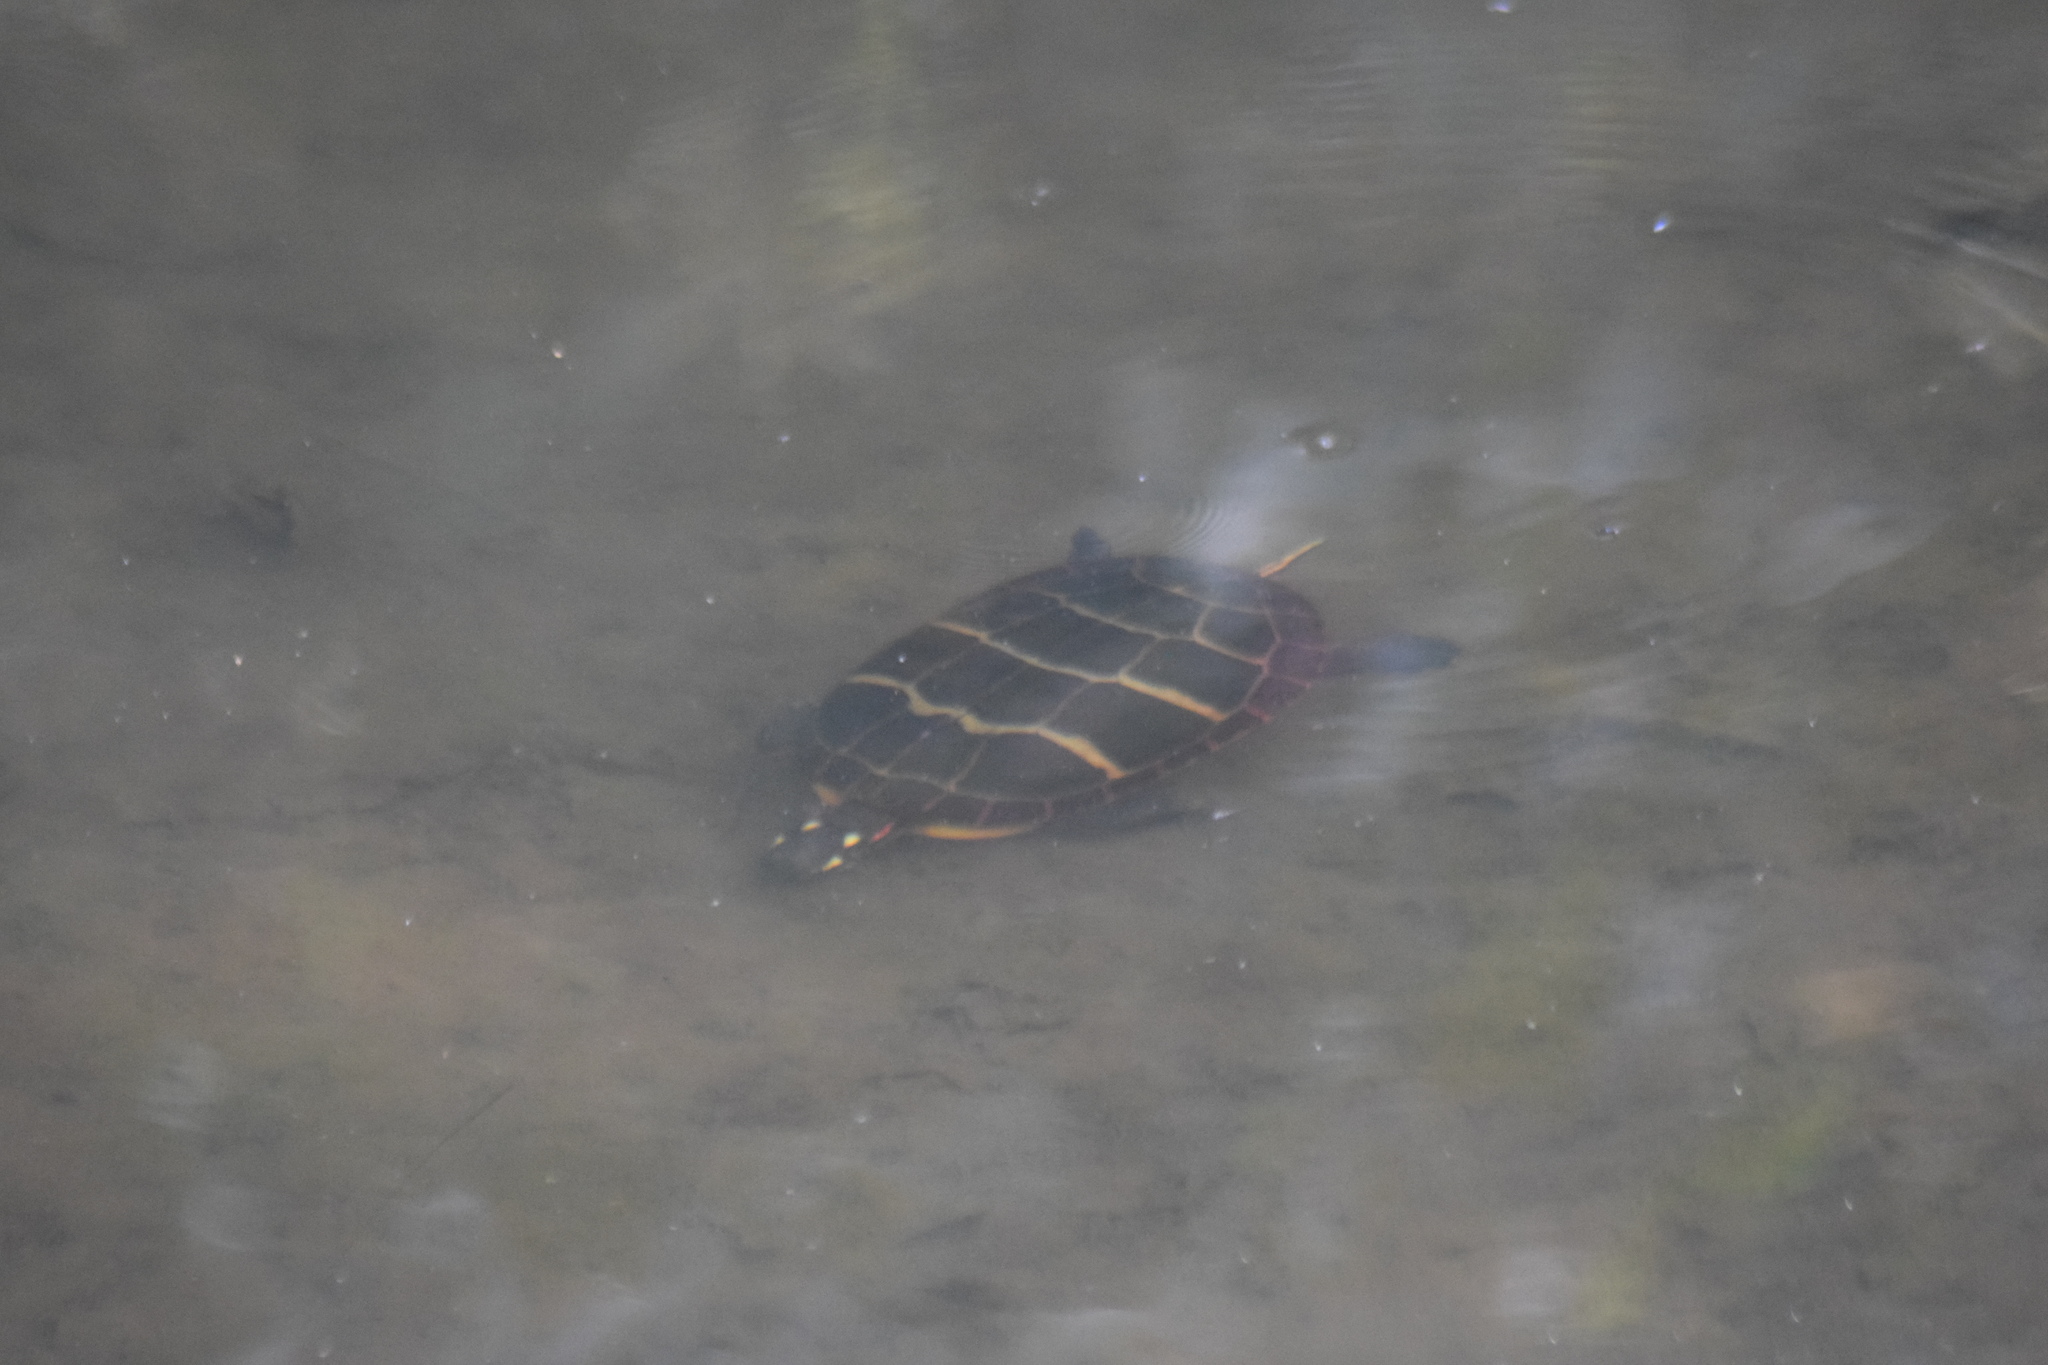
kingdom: Animalia
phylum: Chordata
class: Testudines
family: Emydidae
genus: Chrysemys
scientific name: Chrysemys picta
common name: Painted turtle
